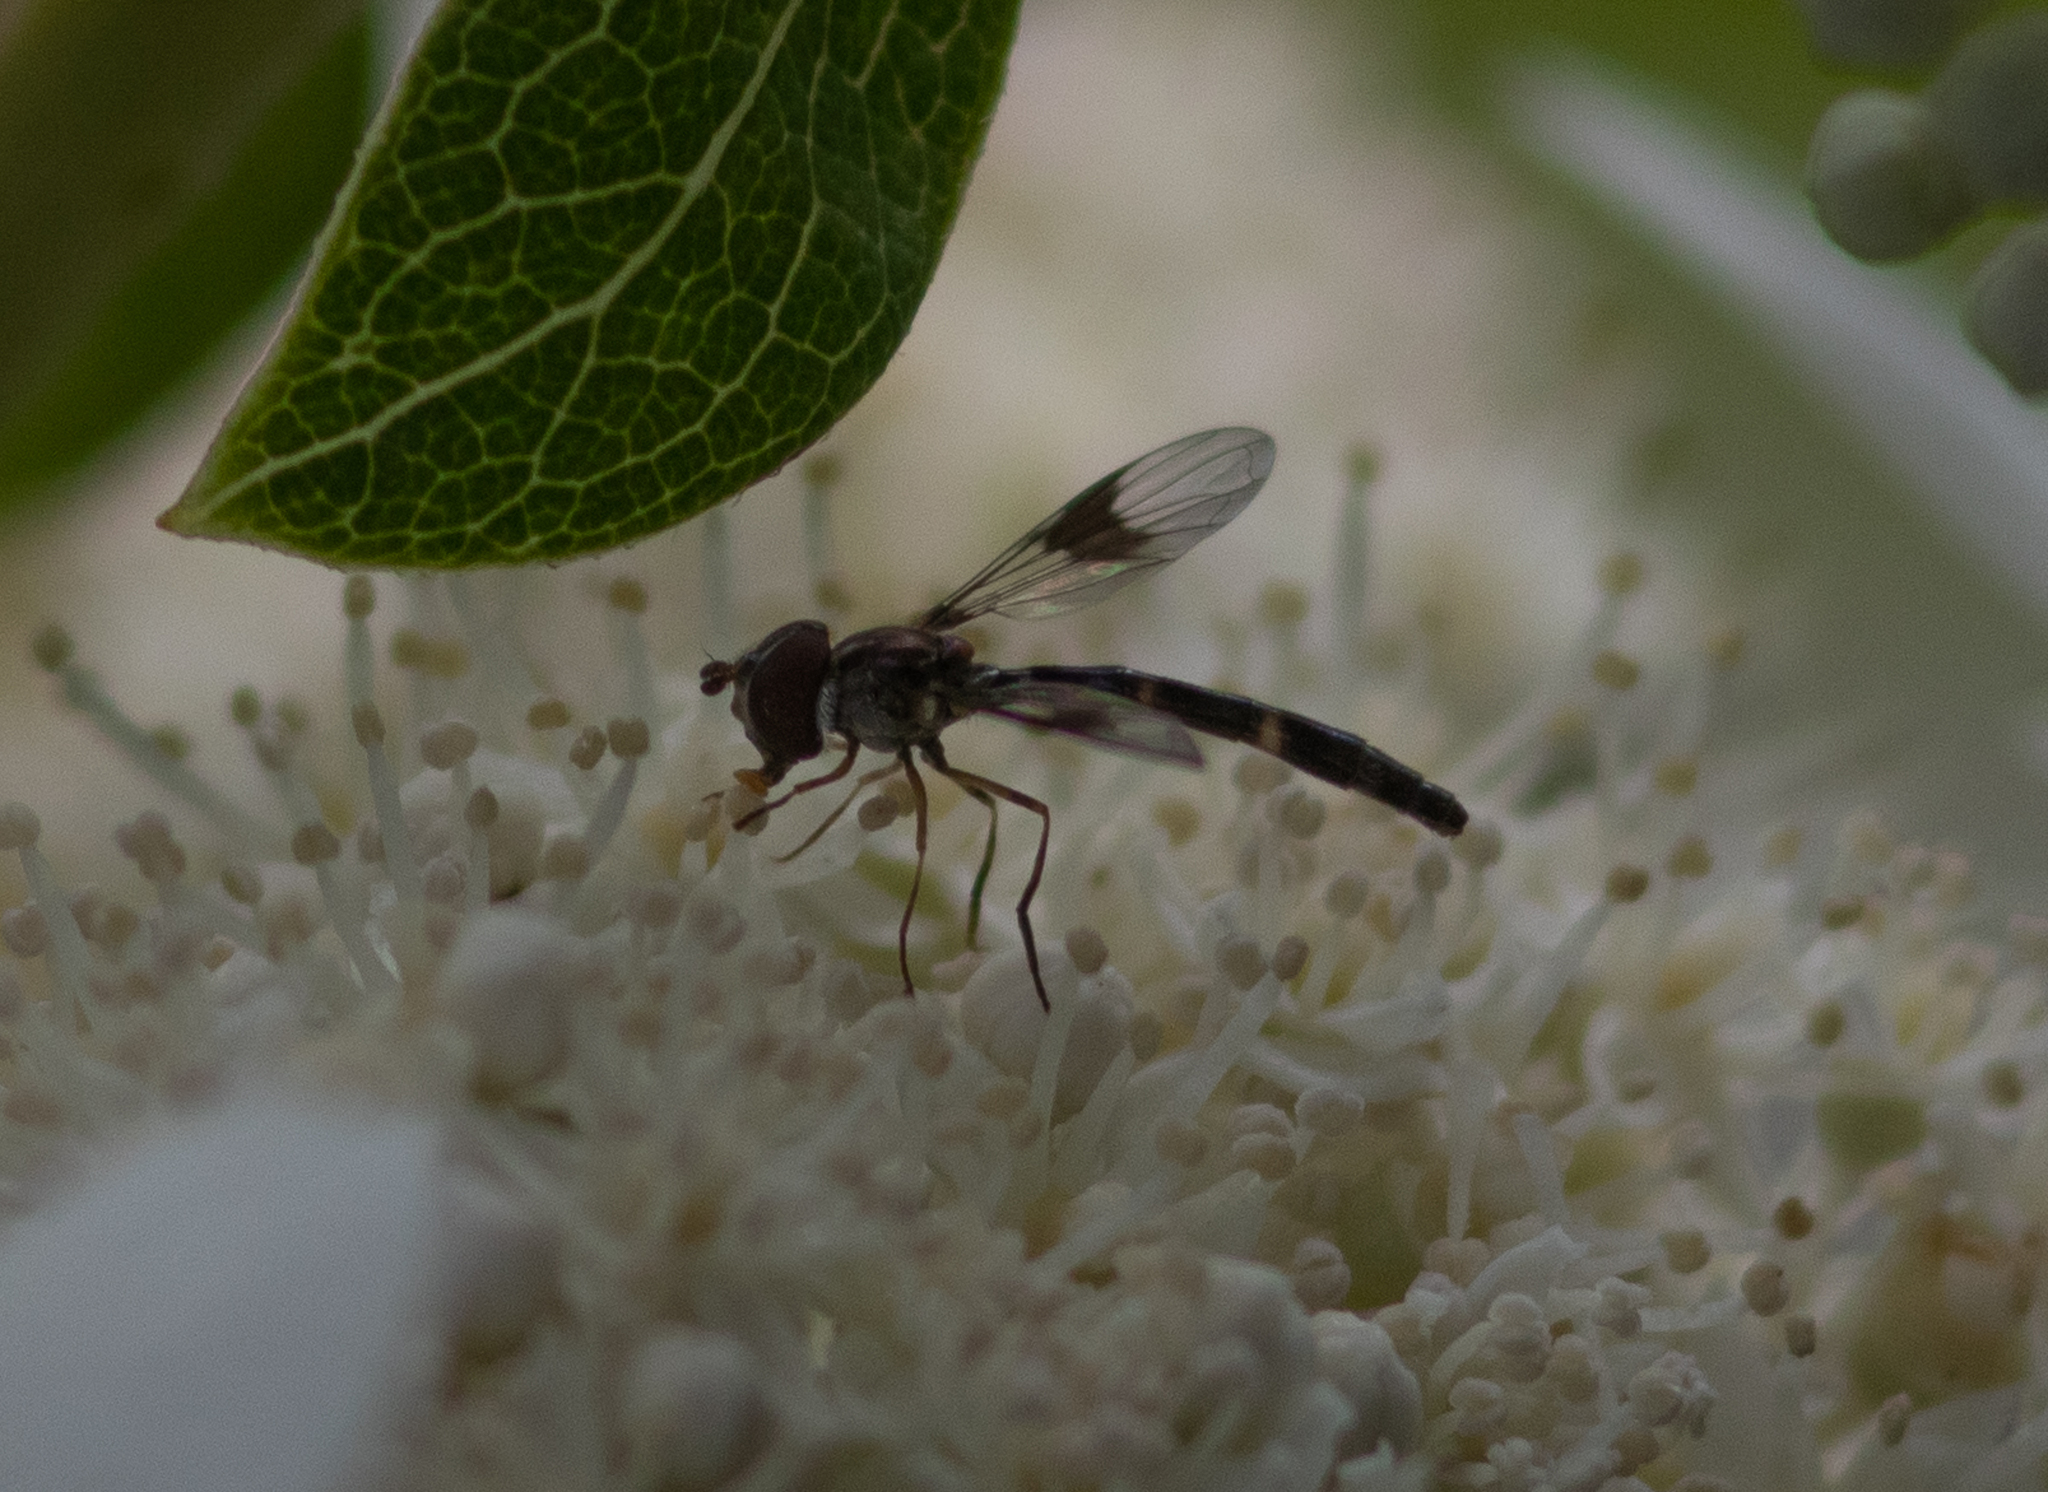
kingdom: Animalia
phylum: Arthropoda
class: Insecta
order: Diptera
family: Syrphidae
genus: Hypocritanus
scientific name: Hypocritanus fascipennis
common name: Eastern band-winged hover fly
